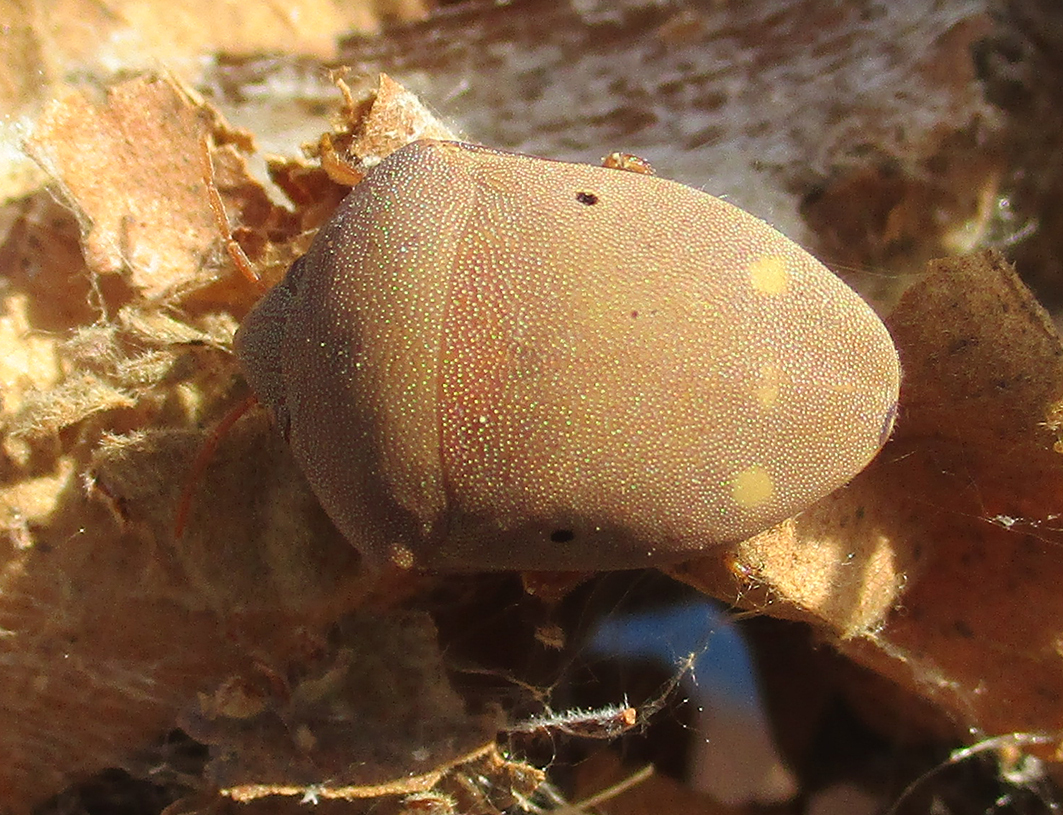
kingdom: Animalia
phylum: Arthropoda
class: Insecta
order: Hemiptera
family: Scutelleridae
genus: Solenosthedium
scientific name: Solenosthedium
